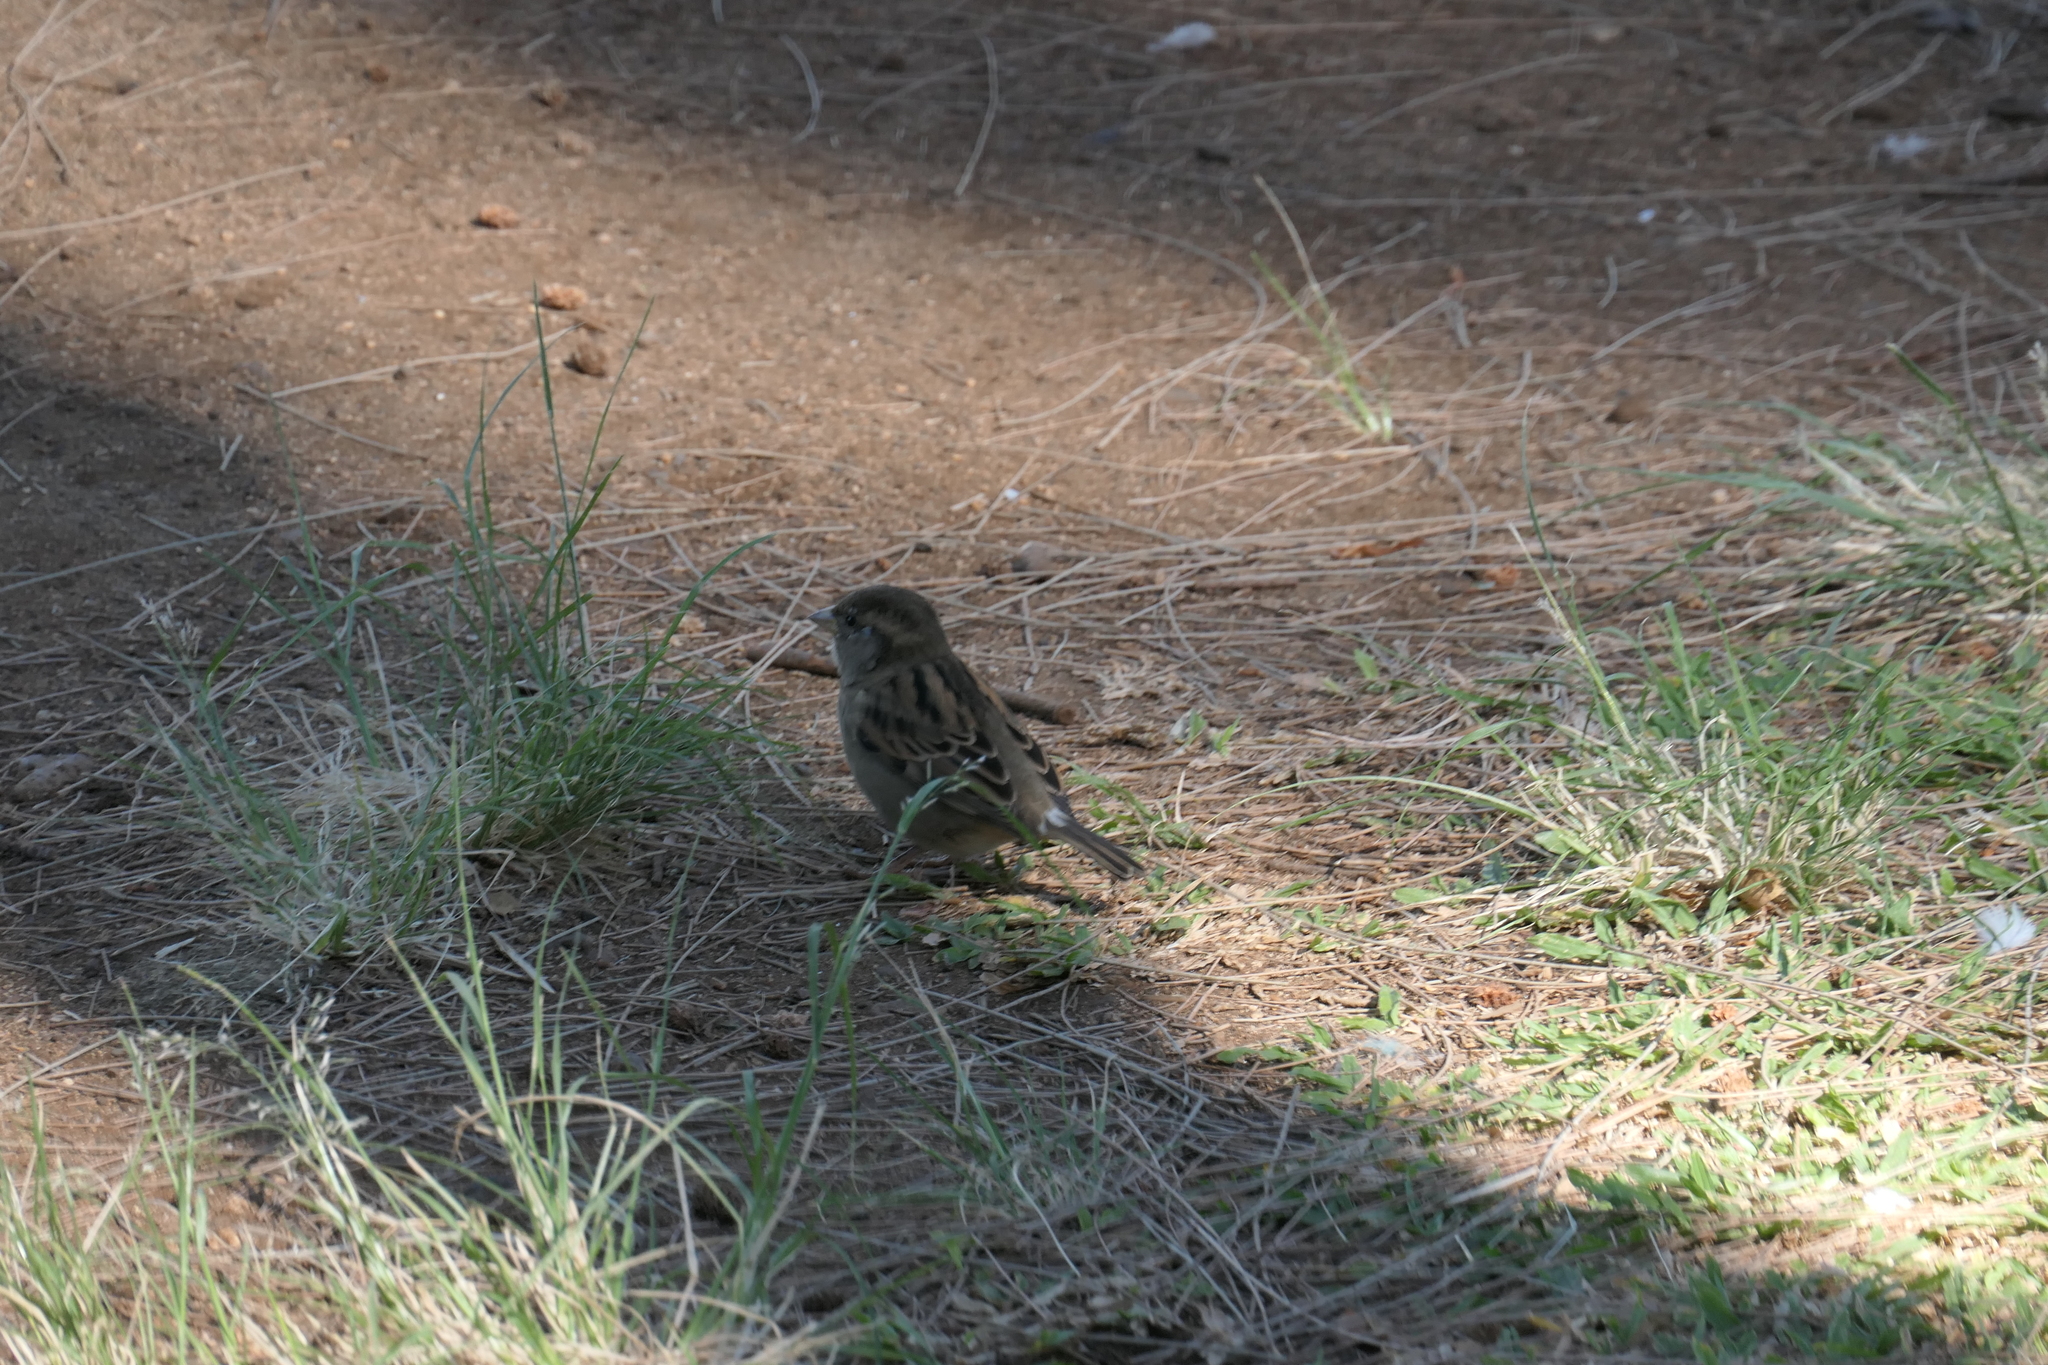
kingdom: Animalia
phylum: Chordata
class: Aves
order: Passeriformes
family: Passeridae
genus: Passer
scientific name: Passer domesticus
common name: House sparrow
